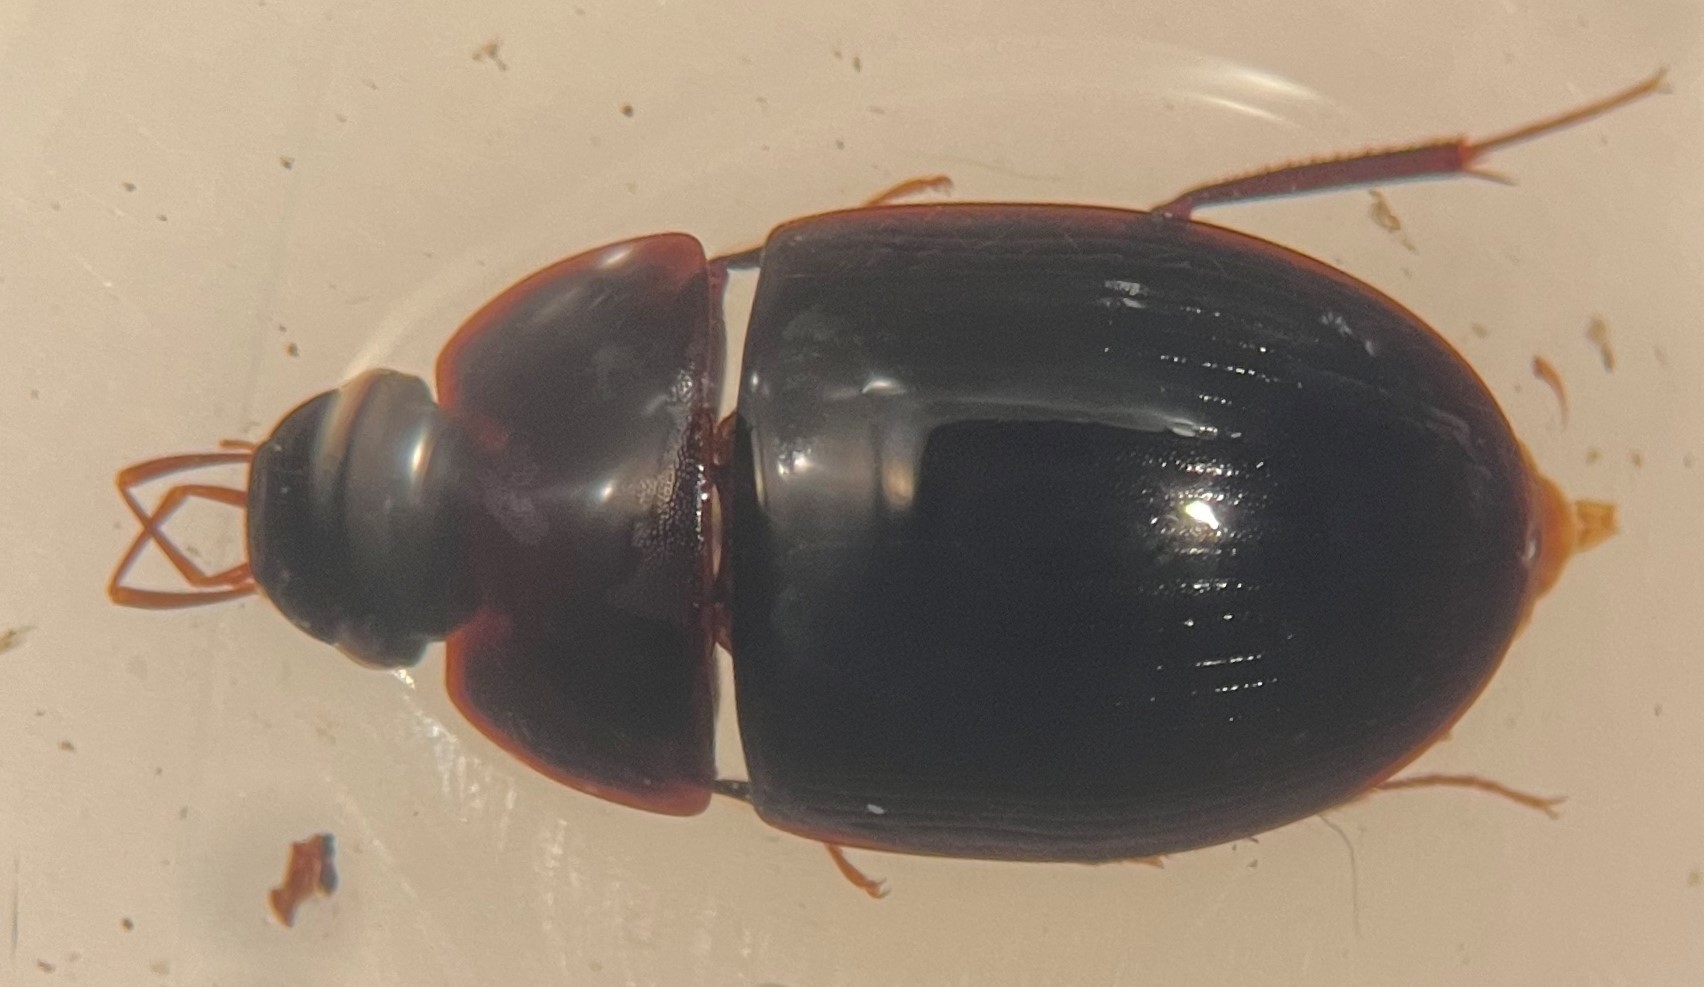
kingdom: Animalia
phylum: Arthropoda
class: Insecta
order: Coleoptera
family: Hydrophilidae
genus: Cymbiodyta
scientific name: Cymbiodyta bifida
